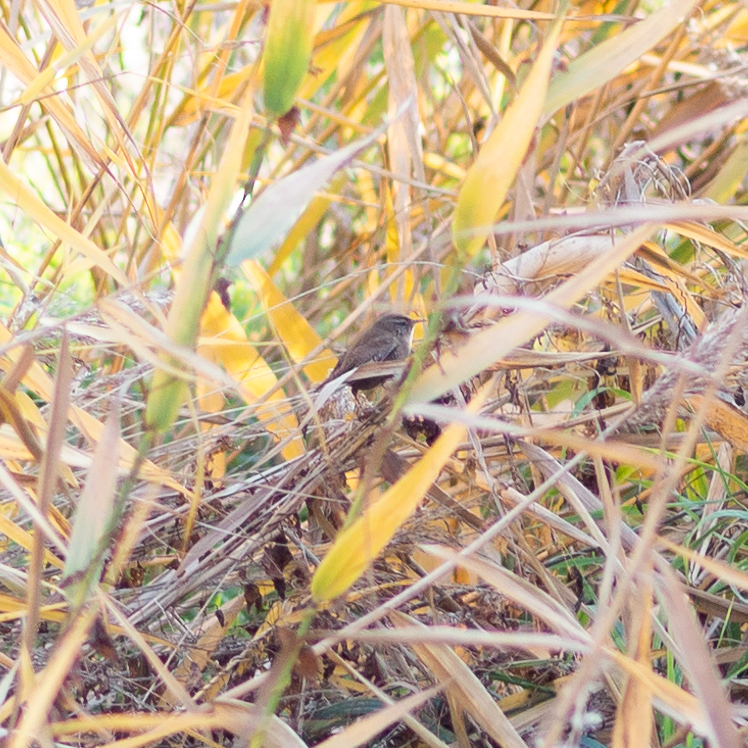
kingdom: Animalia
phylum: Chordata
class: Aves
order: Passeriformes
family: Troglodytidae
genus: Troglodytes
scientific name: Troglodytes troglodytes
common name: Eurasian wren
